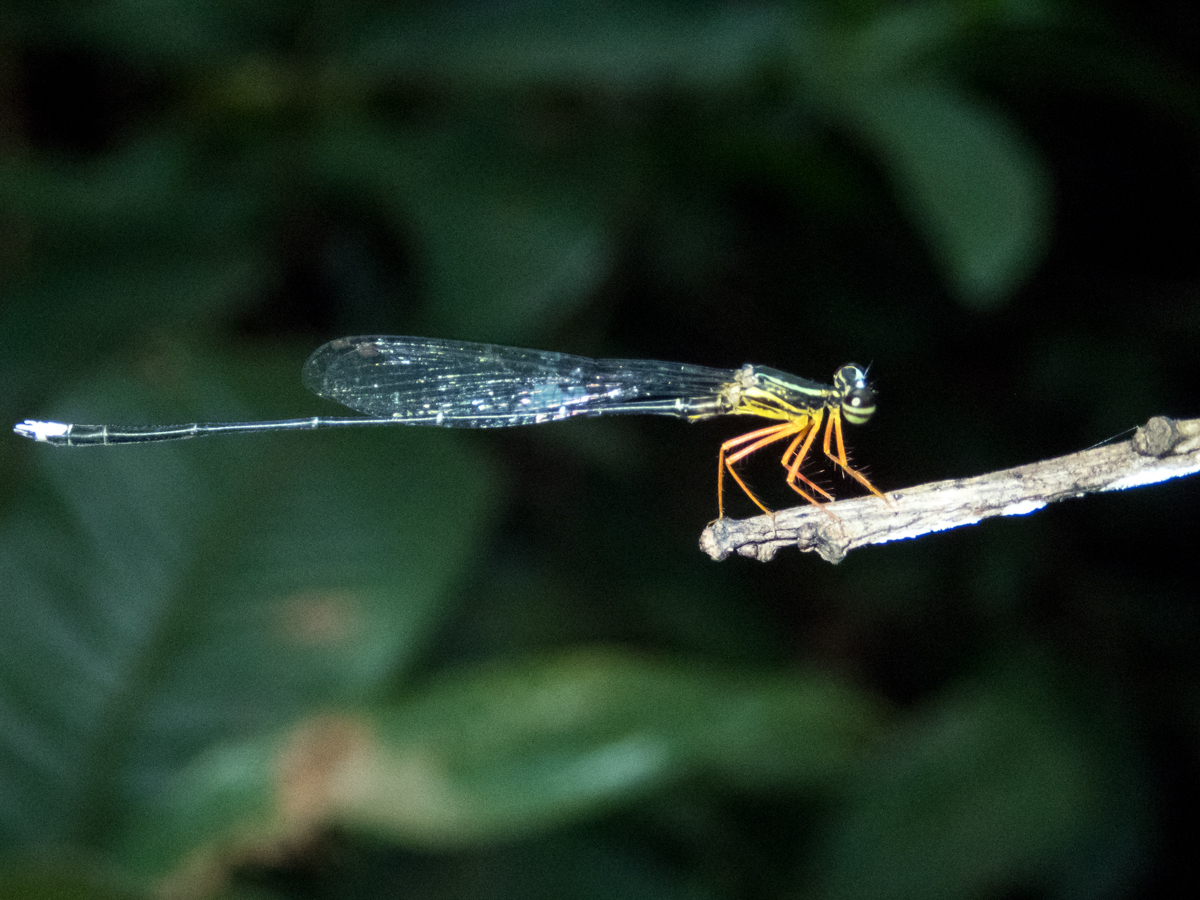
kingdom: Animalia
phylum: Arthropoda
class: Insecta
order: Odonata
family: Platycnemididae
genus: Copera
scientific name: Copera vittata
